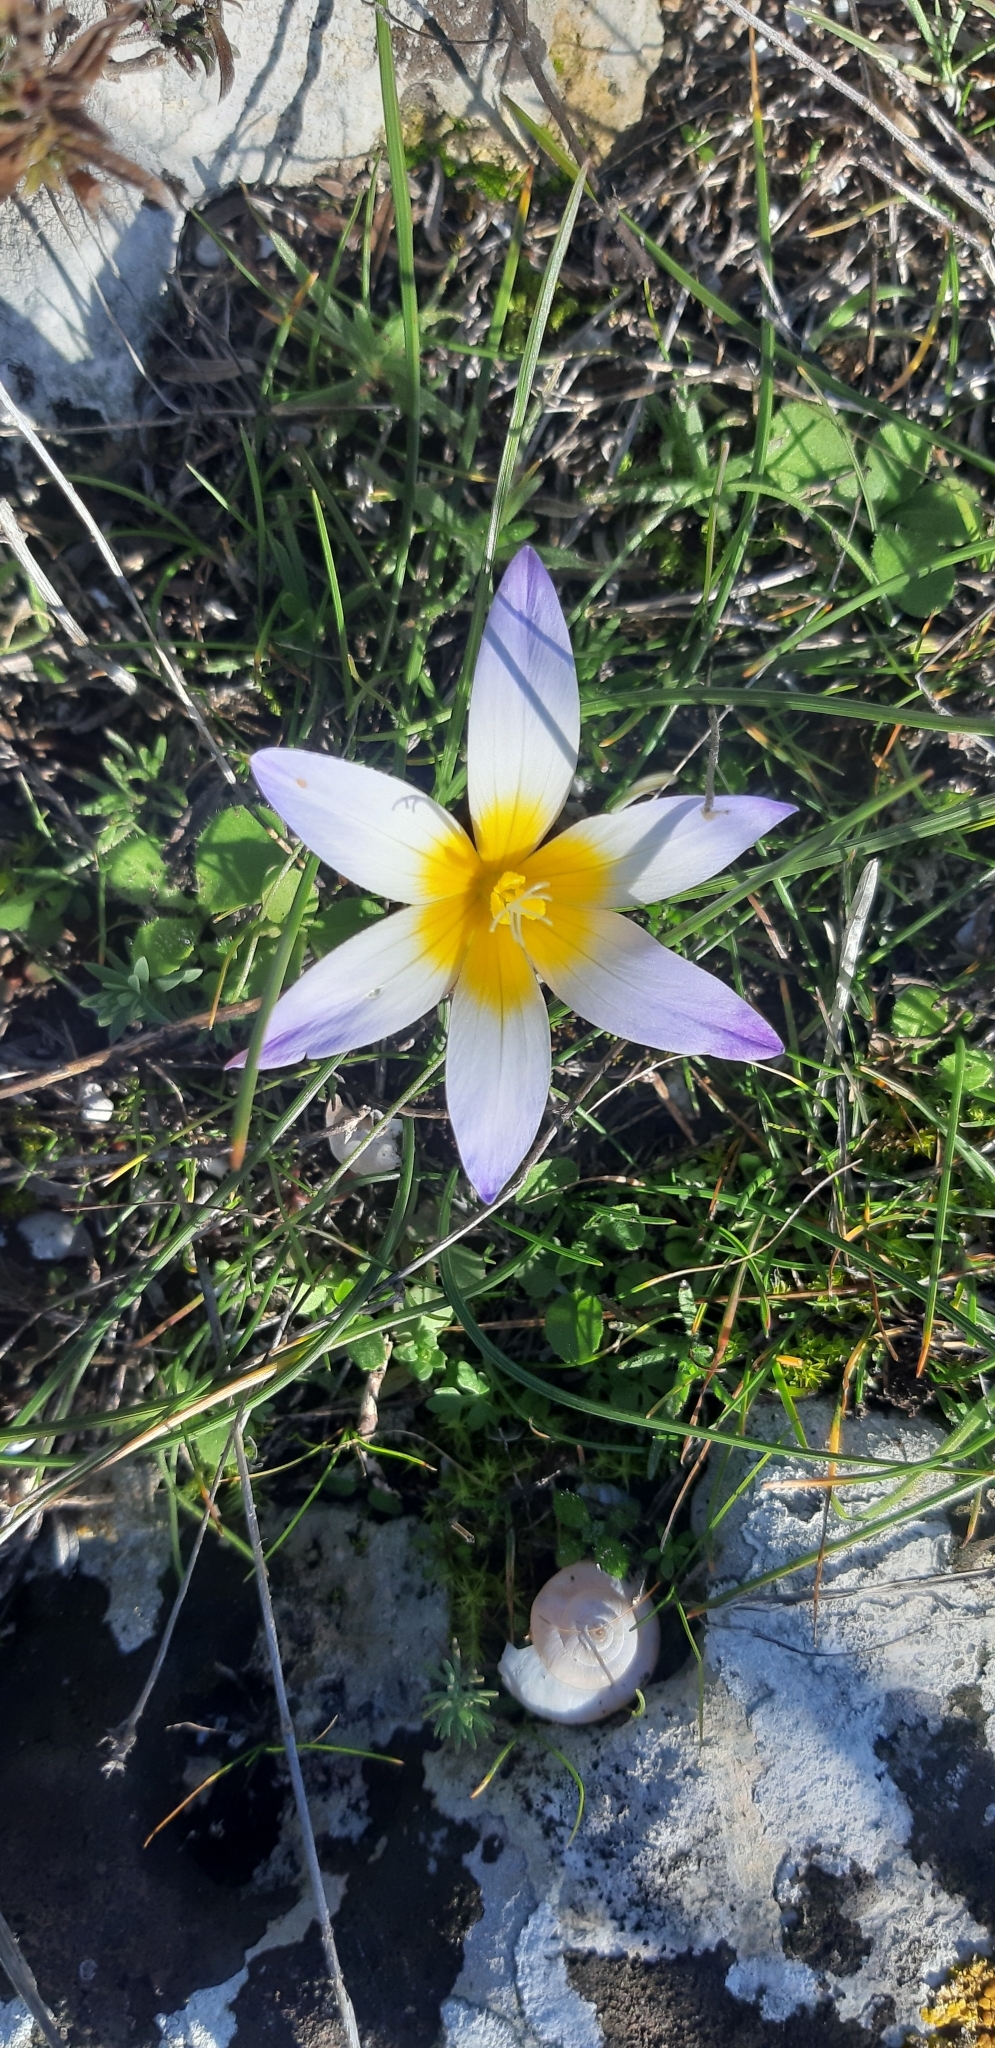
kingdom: Plantae
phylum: Tracheophyta
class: Liliopsida
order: Asparagales
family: Iridaceae
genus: Romulea
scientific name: Romulea bulbocodium
